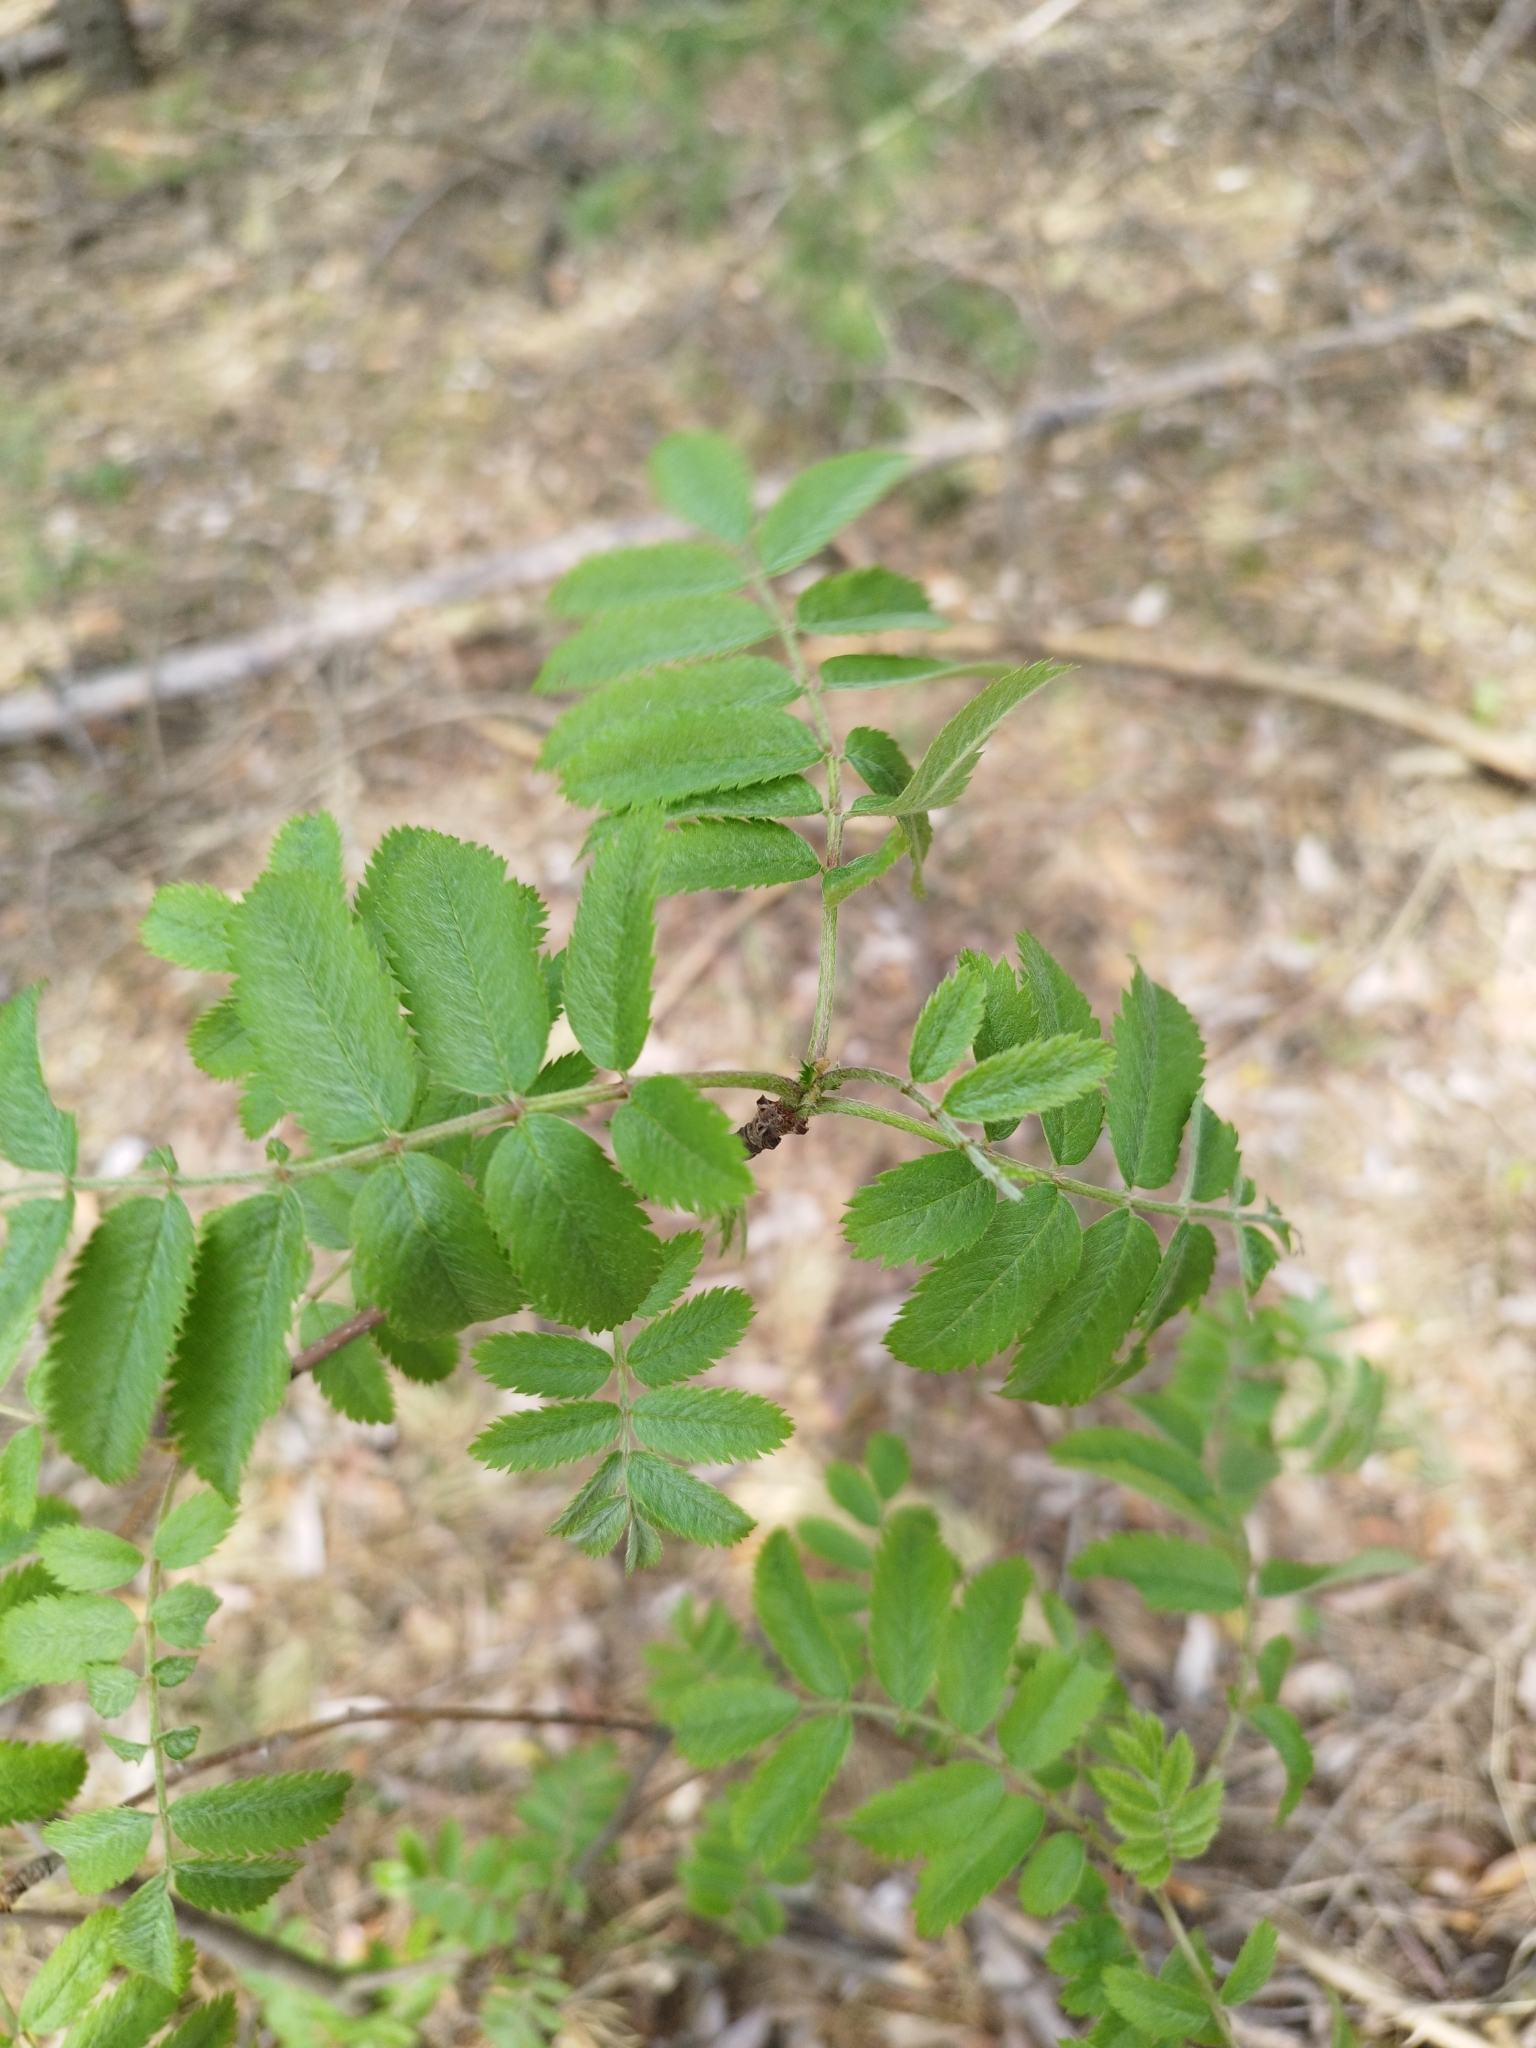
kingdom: Plantae
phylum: Tracheophyta
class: Magnoliopsida
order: Rosales
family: Rosaceae
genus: Sorbus
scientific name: Sorbus aucuparia
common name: Rowan
